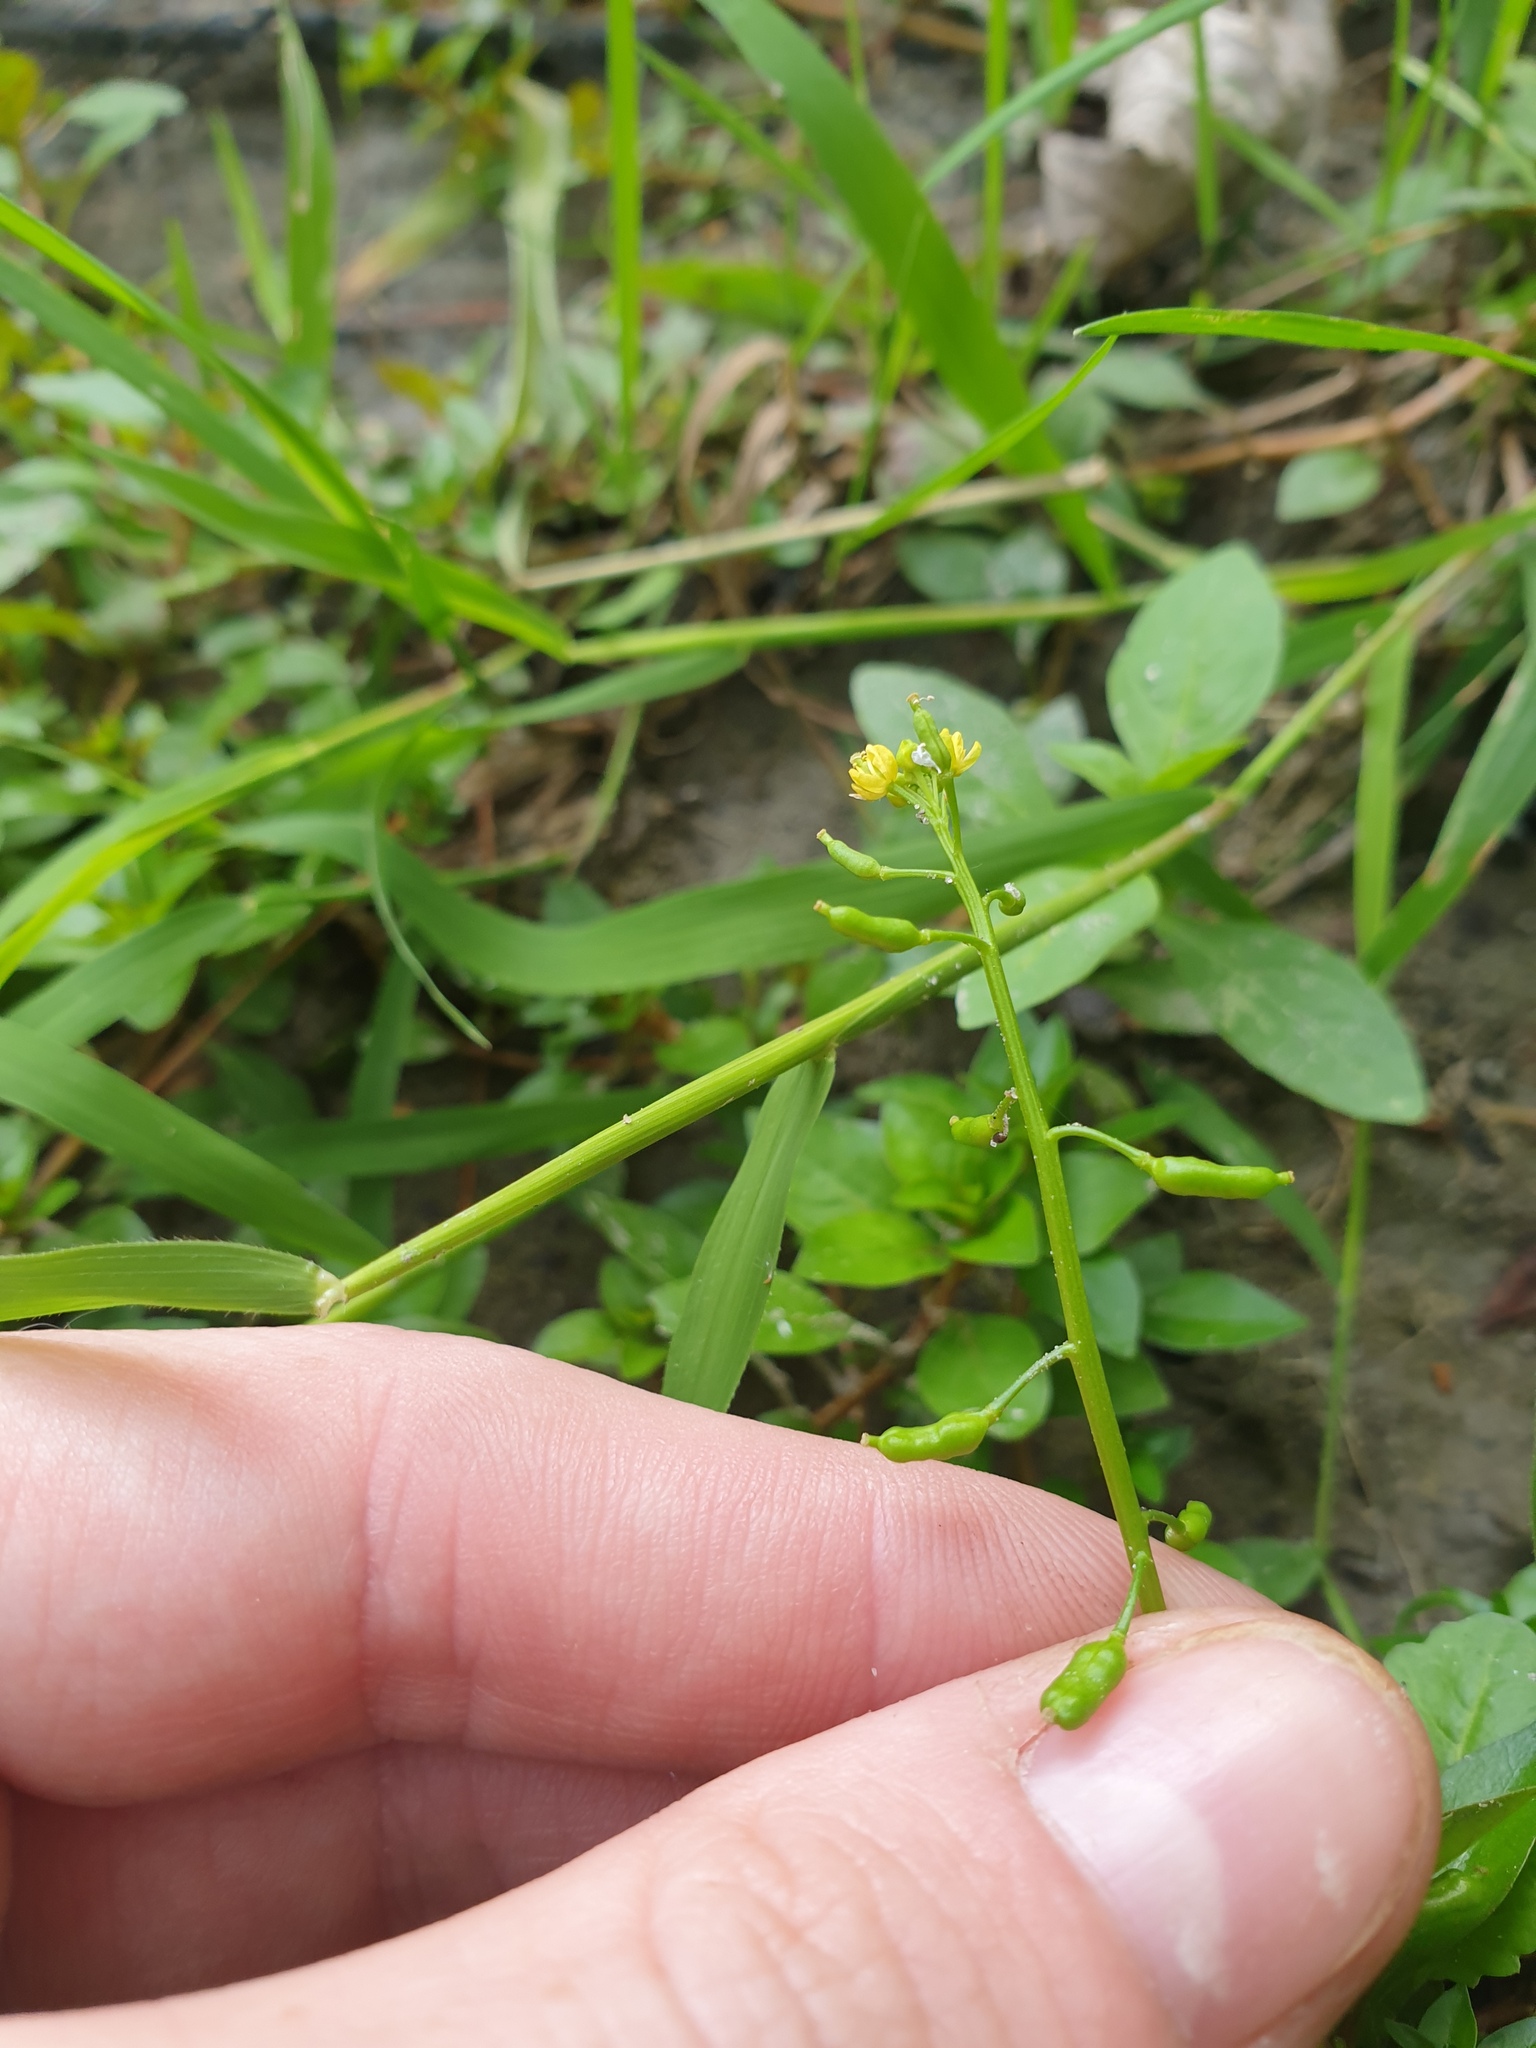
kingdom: Plantae
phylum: Tracheophyta
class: Magnoliopsida
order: Brassicales
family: Brassicaceae
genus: Rorippa
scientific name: Rorippa palustris
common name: Marsh yellow-cress
